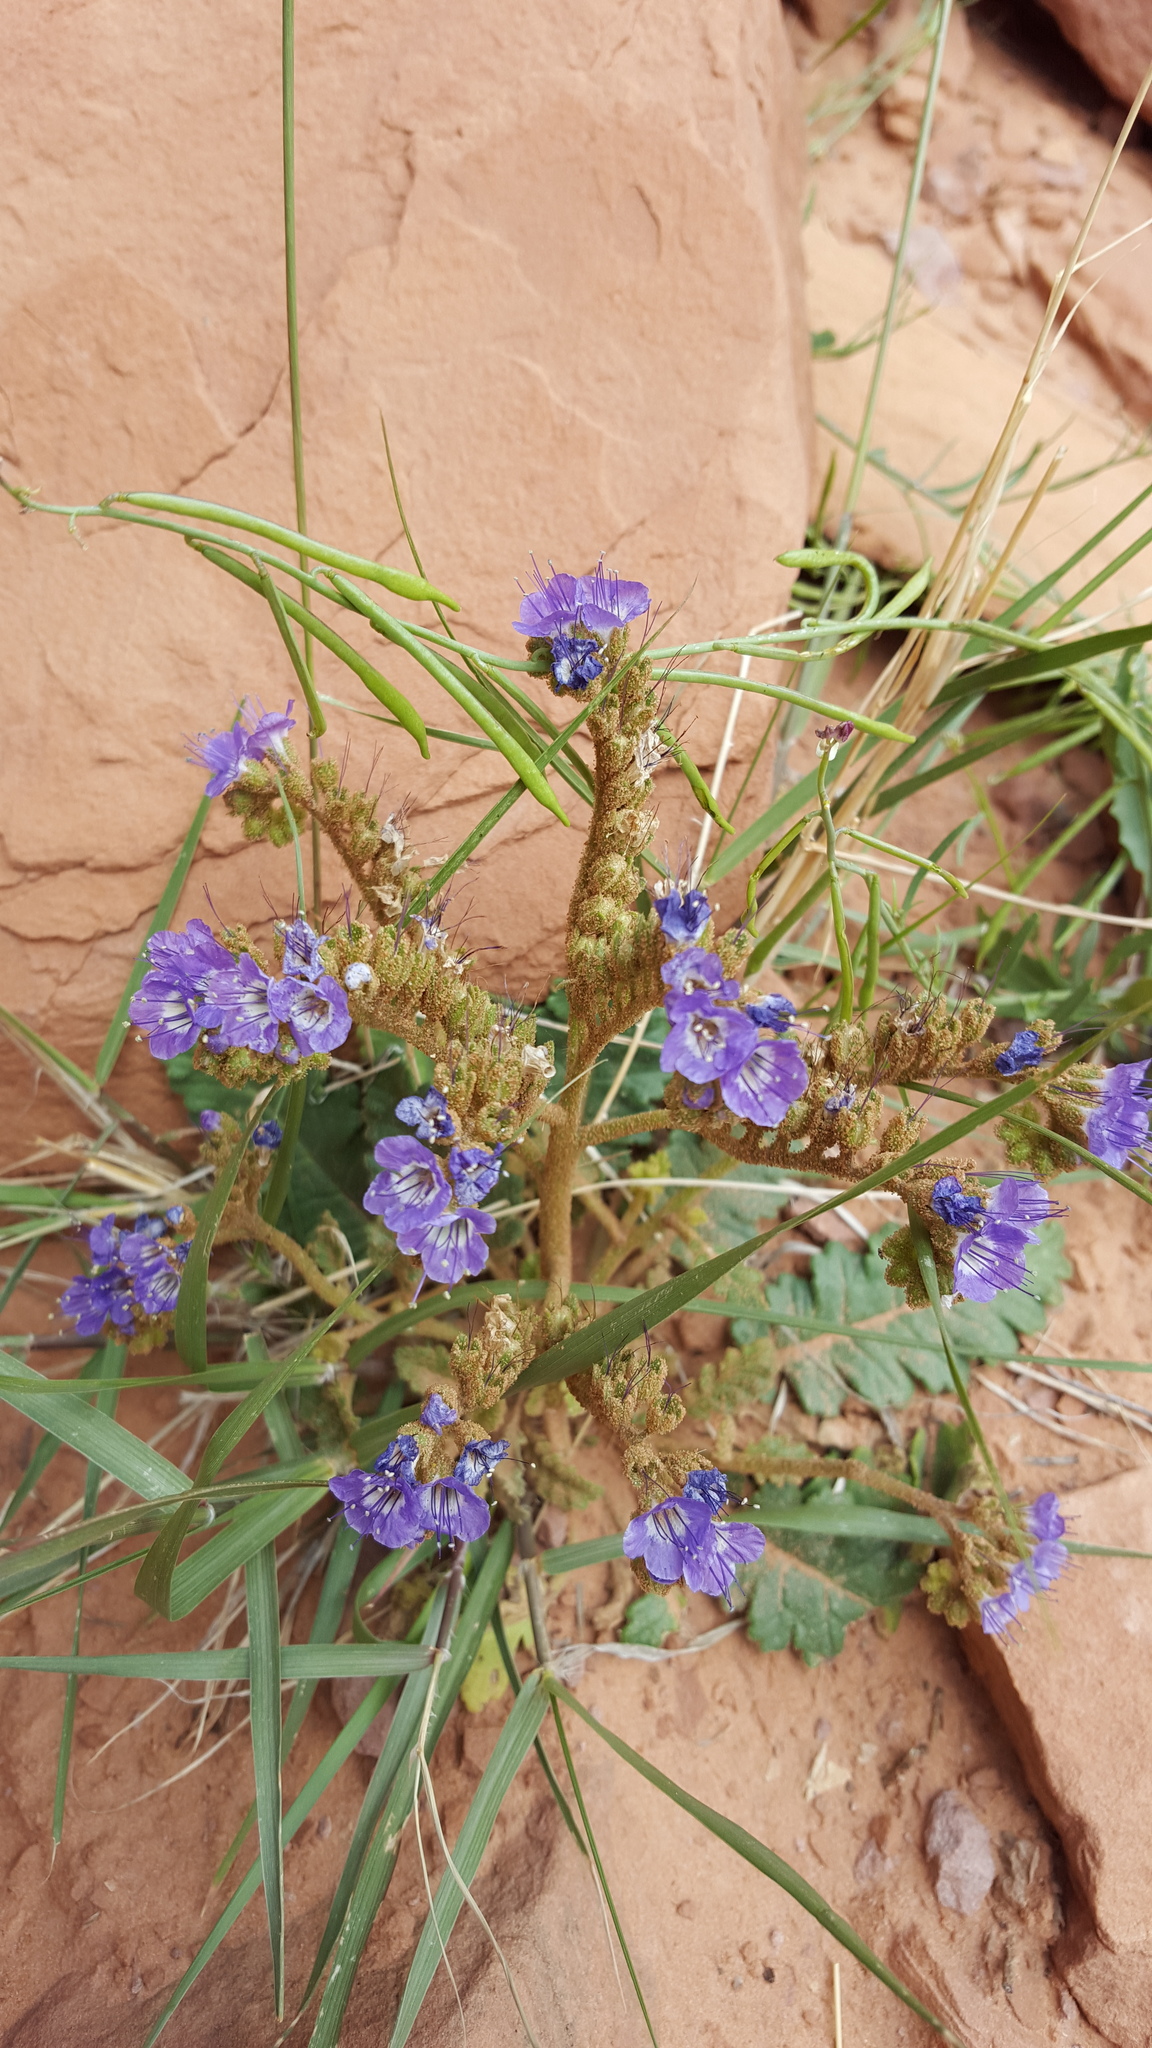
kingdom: Plantae
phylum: Tracheophyta
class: Magnoliopsida
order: Boraginales
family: Hydrophyllaceae
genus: Phacelia
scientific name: Phacelia howelliana
